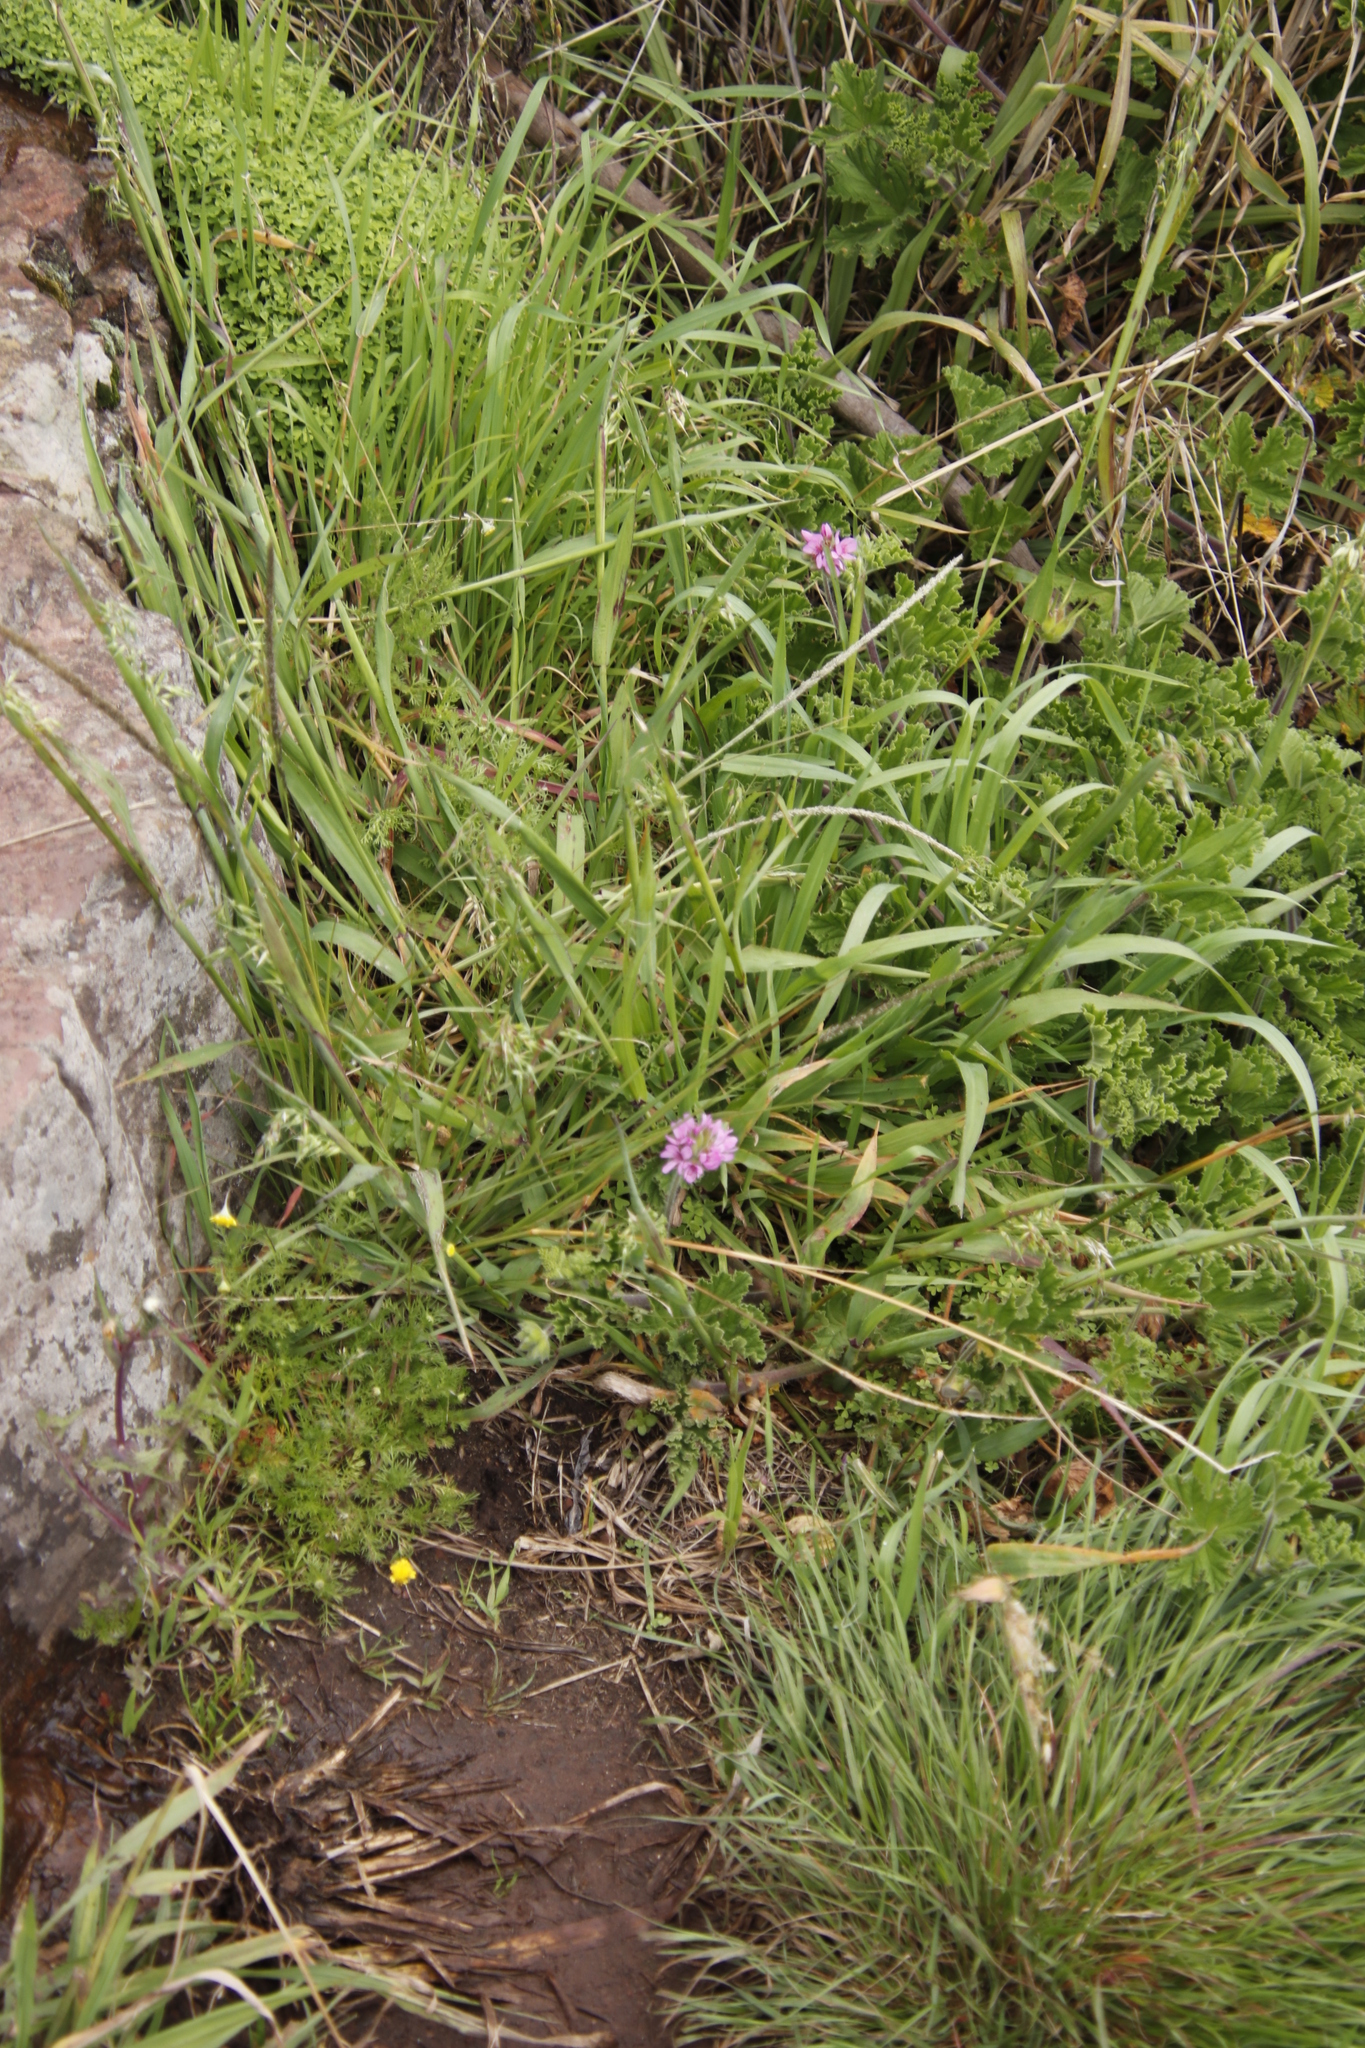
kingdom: Plantae
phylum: Tracheophyta
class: Magnoliopsida
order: Geraniales
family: Geraniaceae
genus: Pelargonium
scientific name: Pelargonium capitatum
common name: Rose scented geranium
